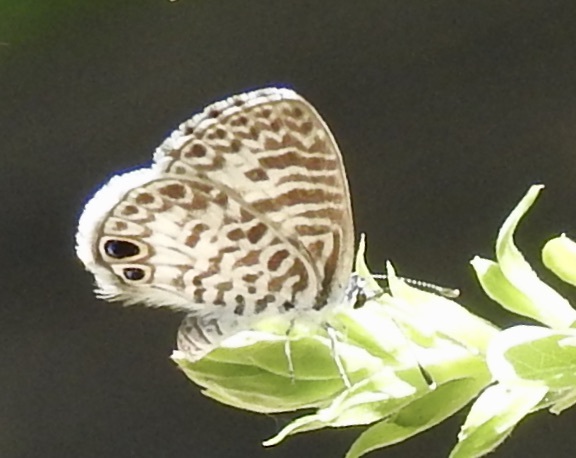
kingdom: Animalia
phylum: Arthropoda
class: Insecta
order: Lepidoptera
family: Lycaenidae
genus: Leptotes
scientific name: Leptotes cassius
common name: Cassius blue
